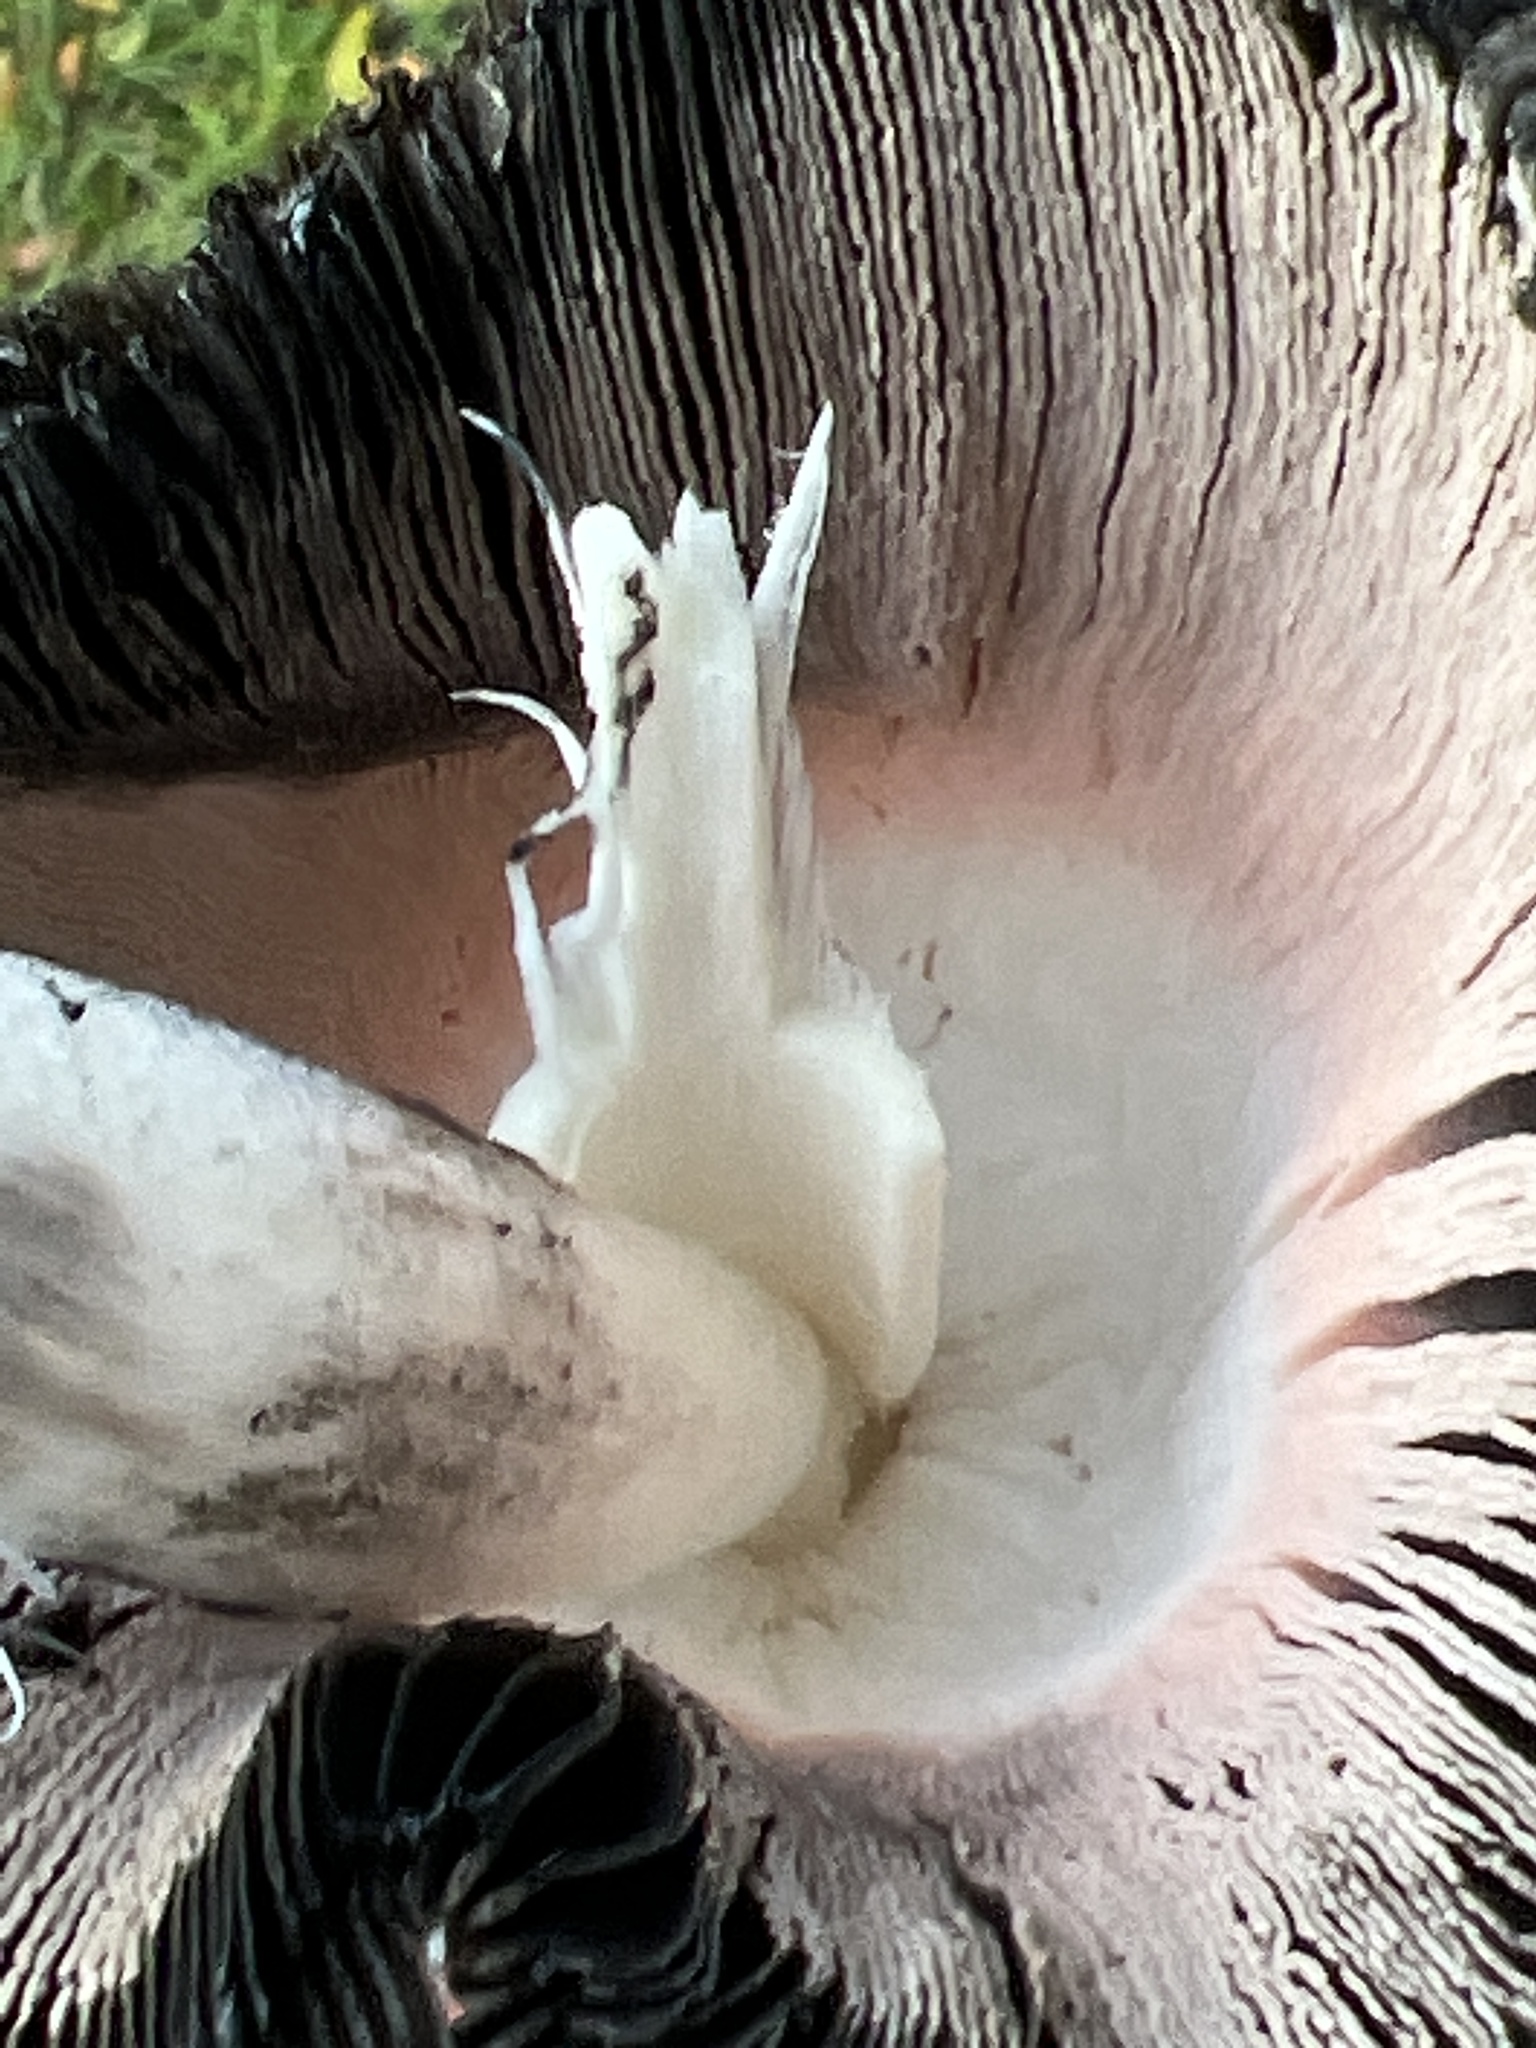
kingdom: Fungi
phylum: Basidiomycota
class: Agaricomycetes
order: Agaricales
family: Agaricaceae
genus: Coprinus
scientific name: Coprinus comatus
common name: Lawyer's wig
